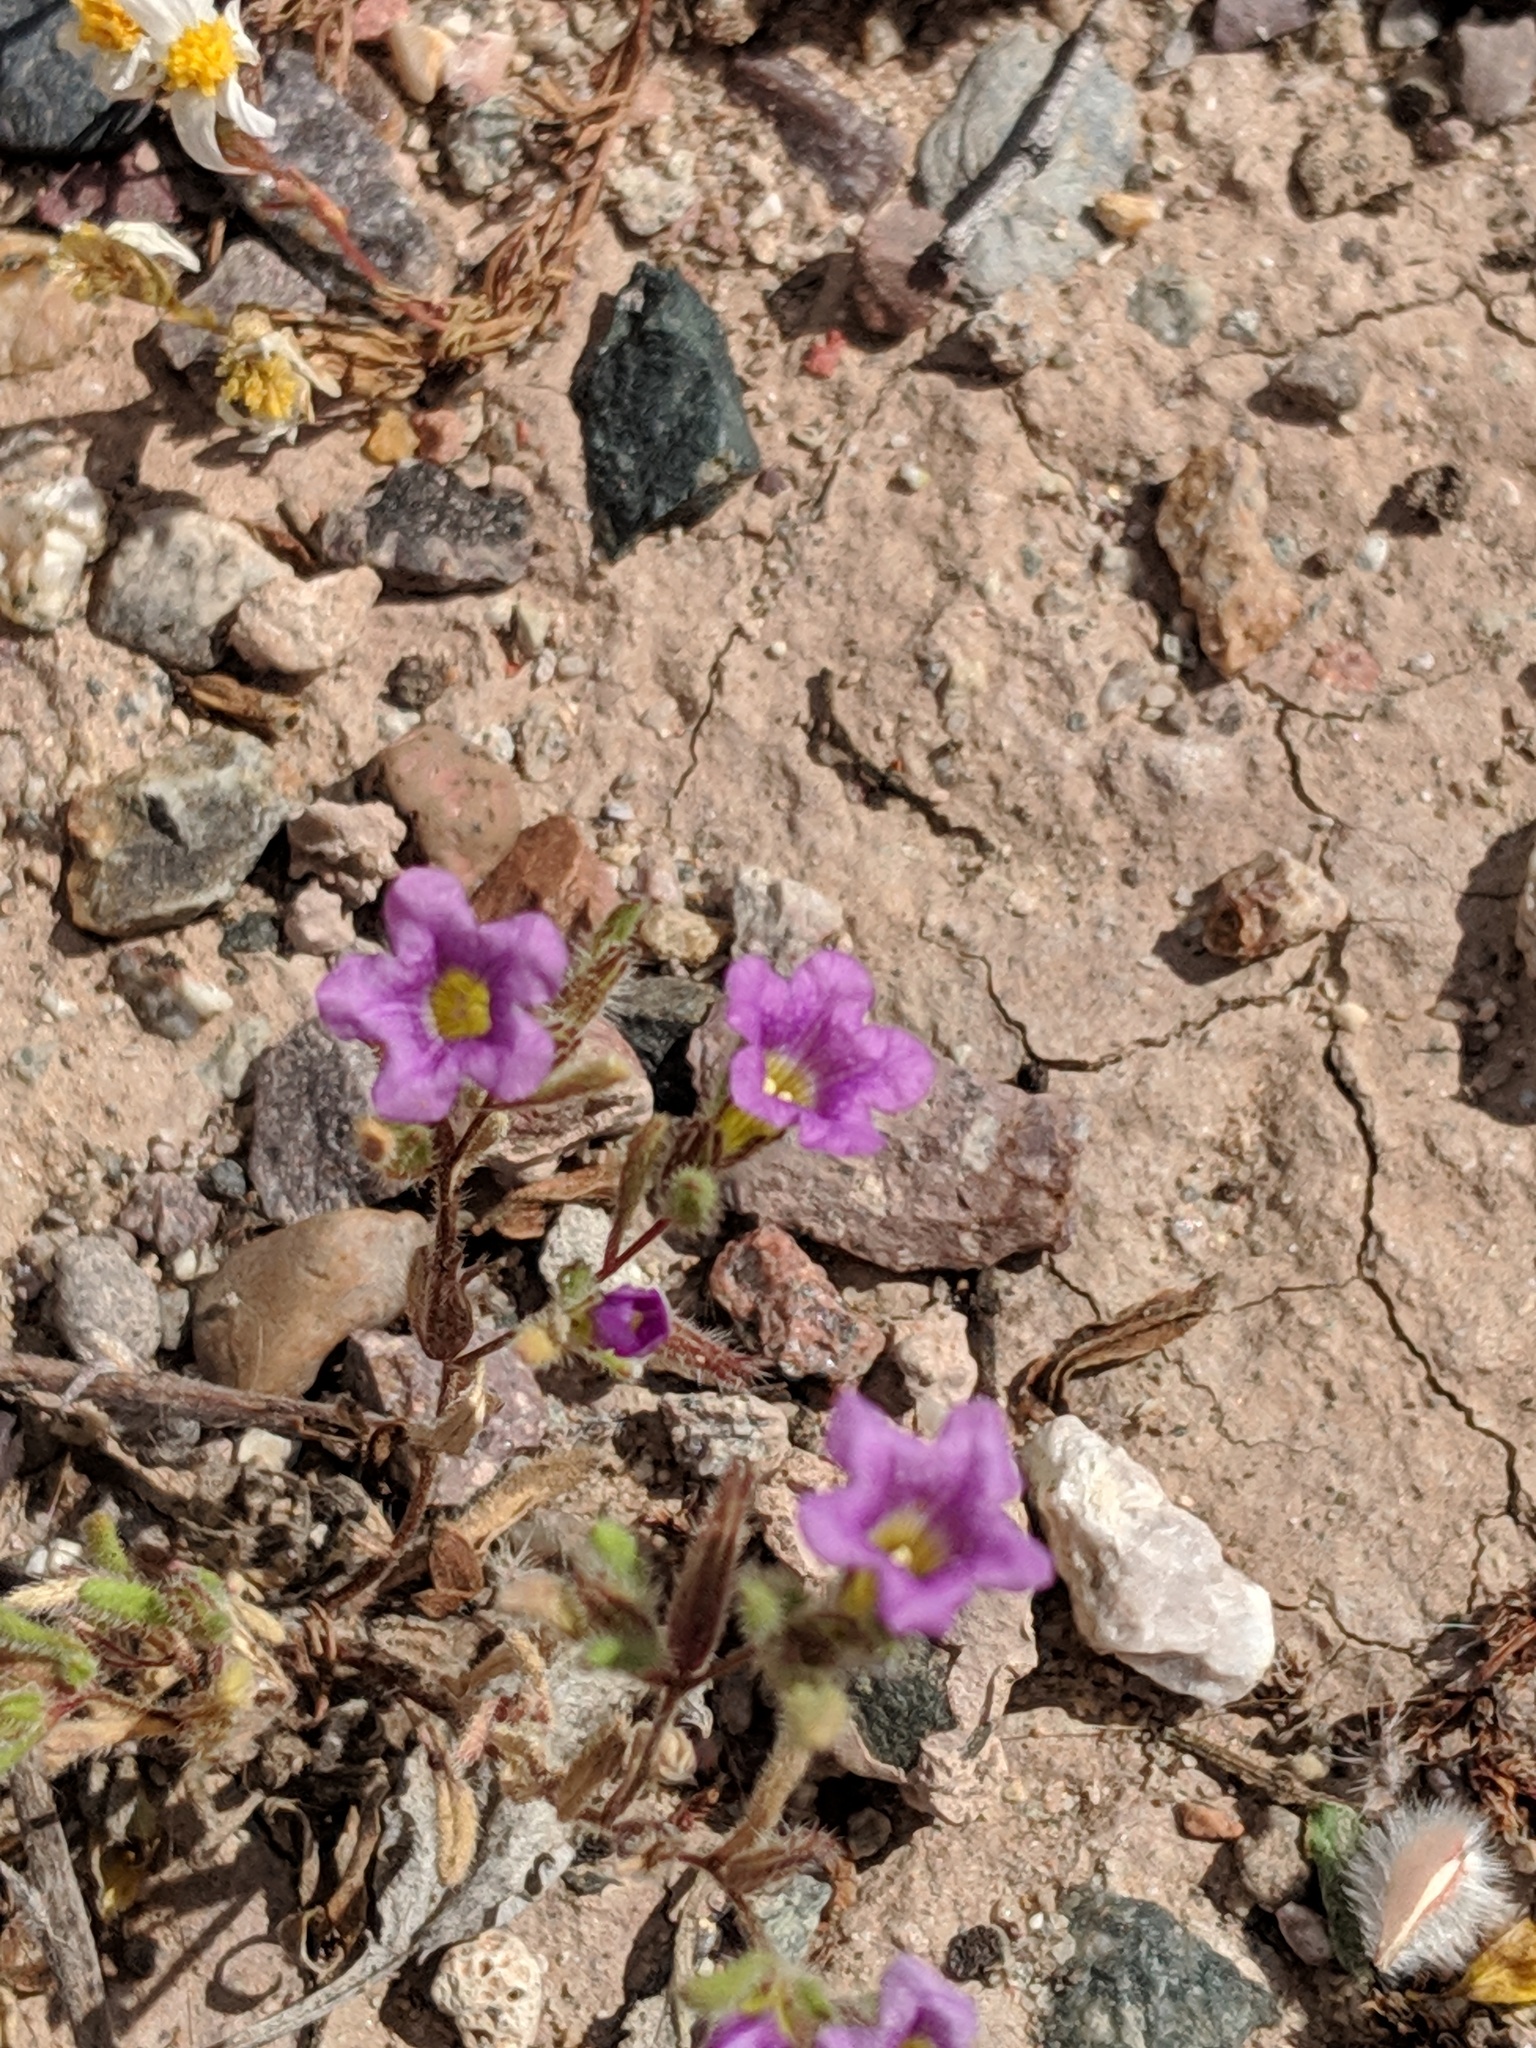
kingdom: Plantae
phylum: Tracheophyta
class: Magnoliopsida
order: Boraginales
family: Namaceae
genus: Nama
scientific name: Nama hispida
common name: Bristly nama
